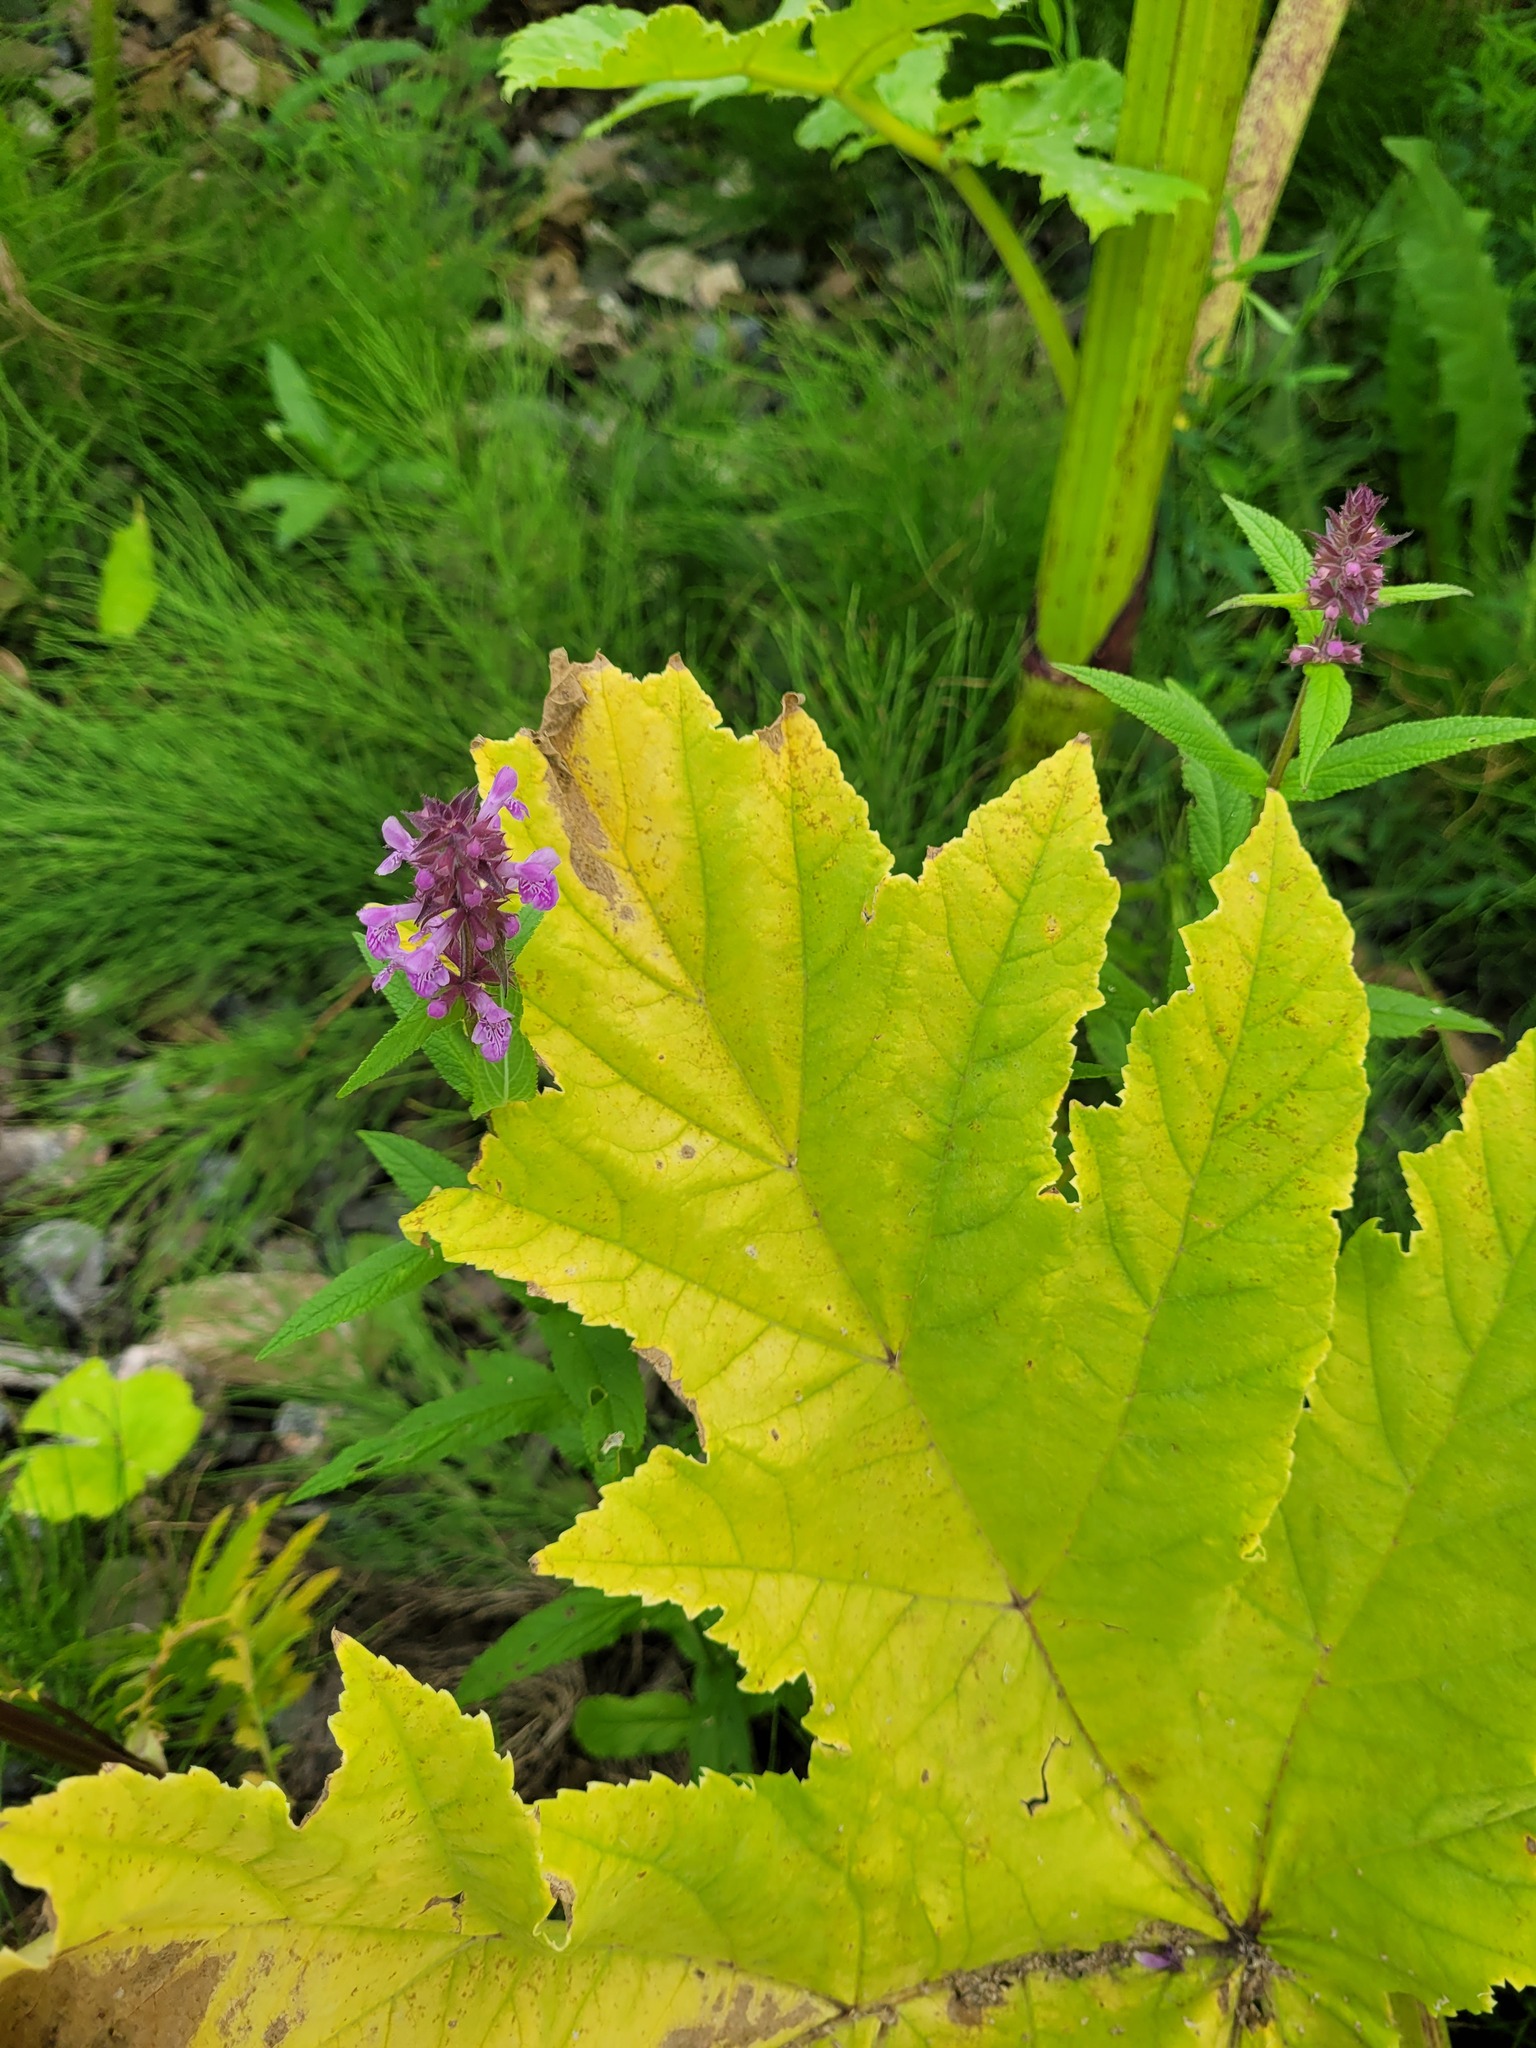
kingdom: Plantae
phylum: Tracheophyta
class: Magnoliopsida
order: Lamiales
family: Lamiaceae
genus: Stachys
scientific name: Stachys palustris
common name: Marsh woundwort
